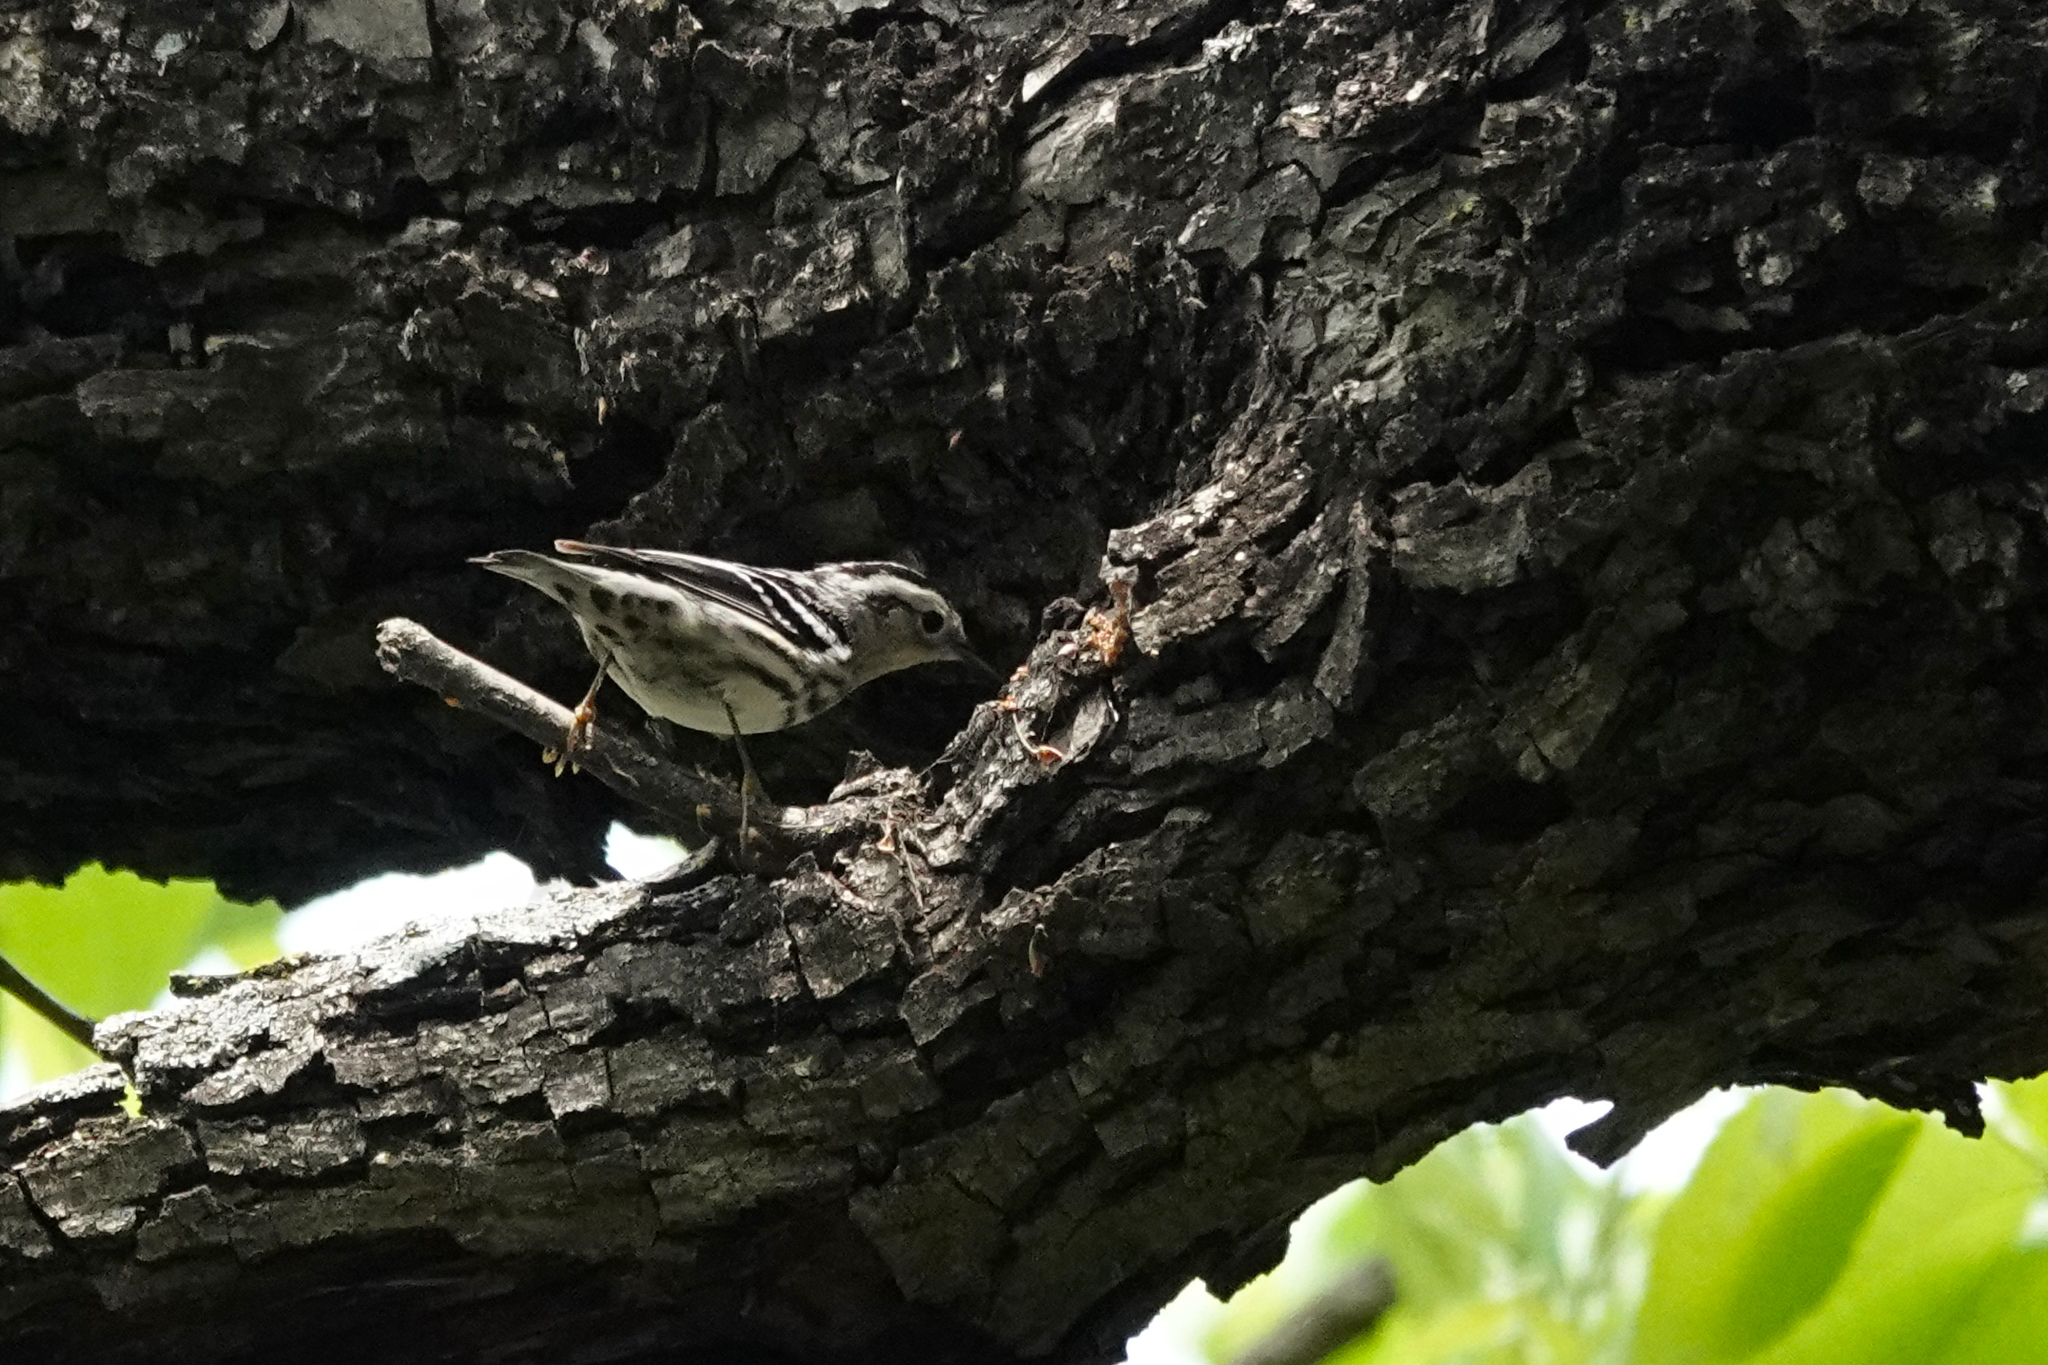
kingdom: Animalia
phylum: Chordata
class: Aves
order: Passeriformes
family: Parulidae
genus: Mniotilta
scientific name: Mniotilta varia
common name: Black-and-white warbler
